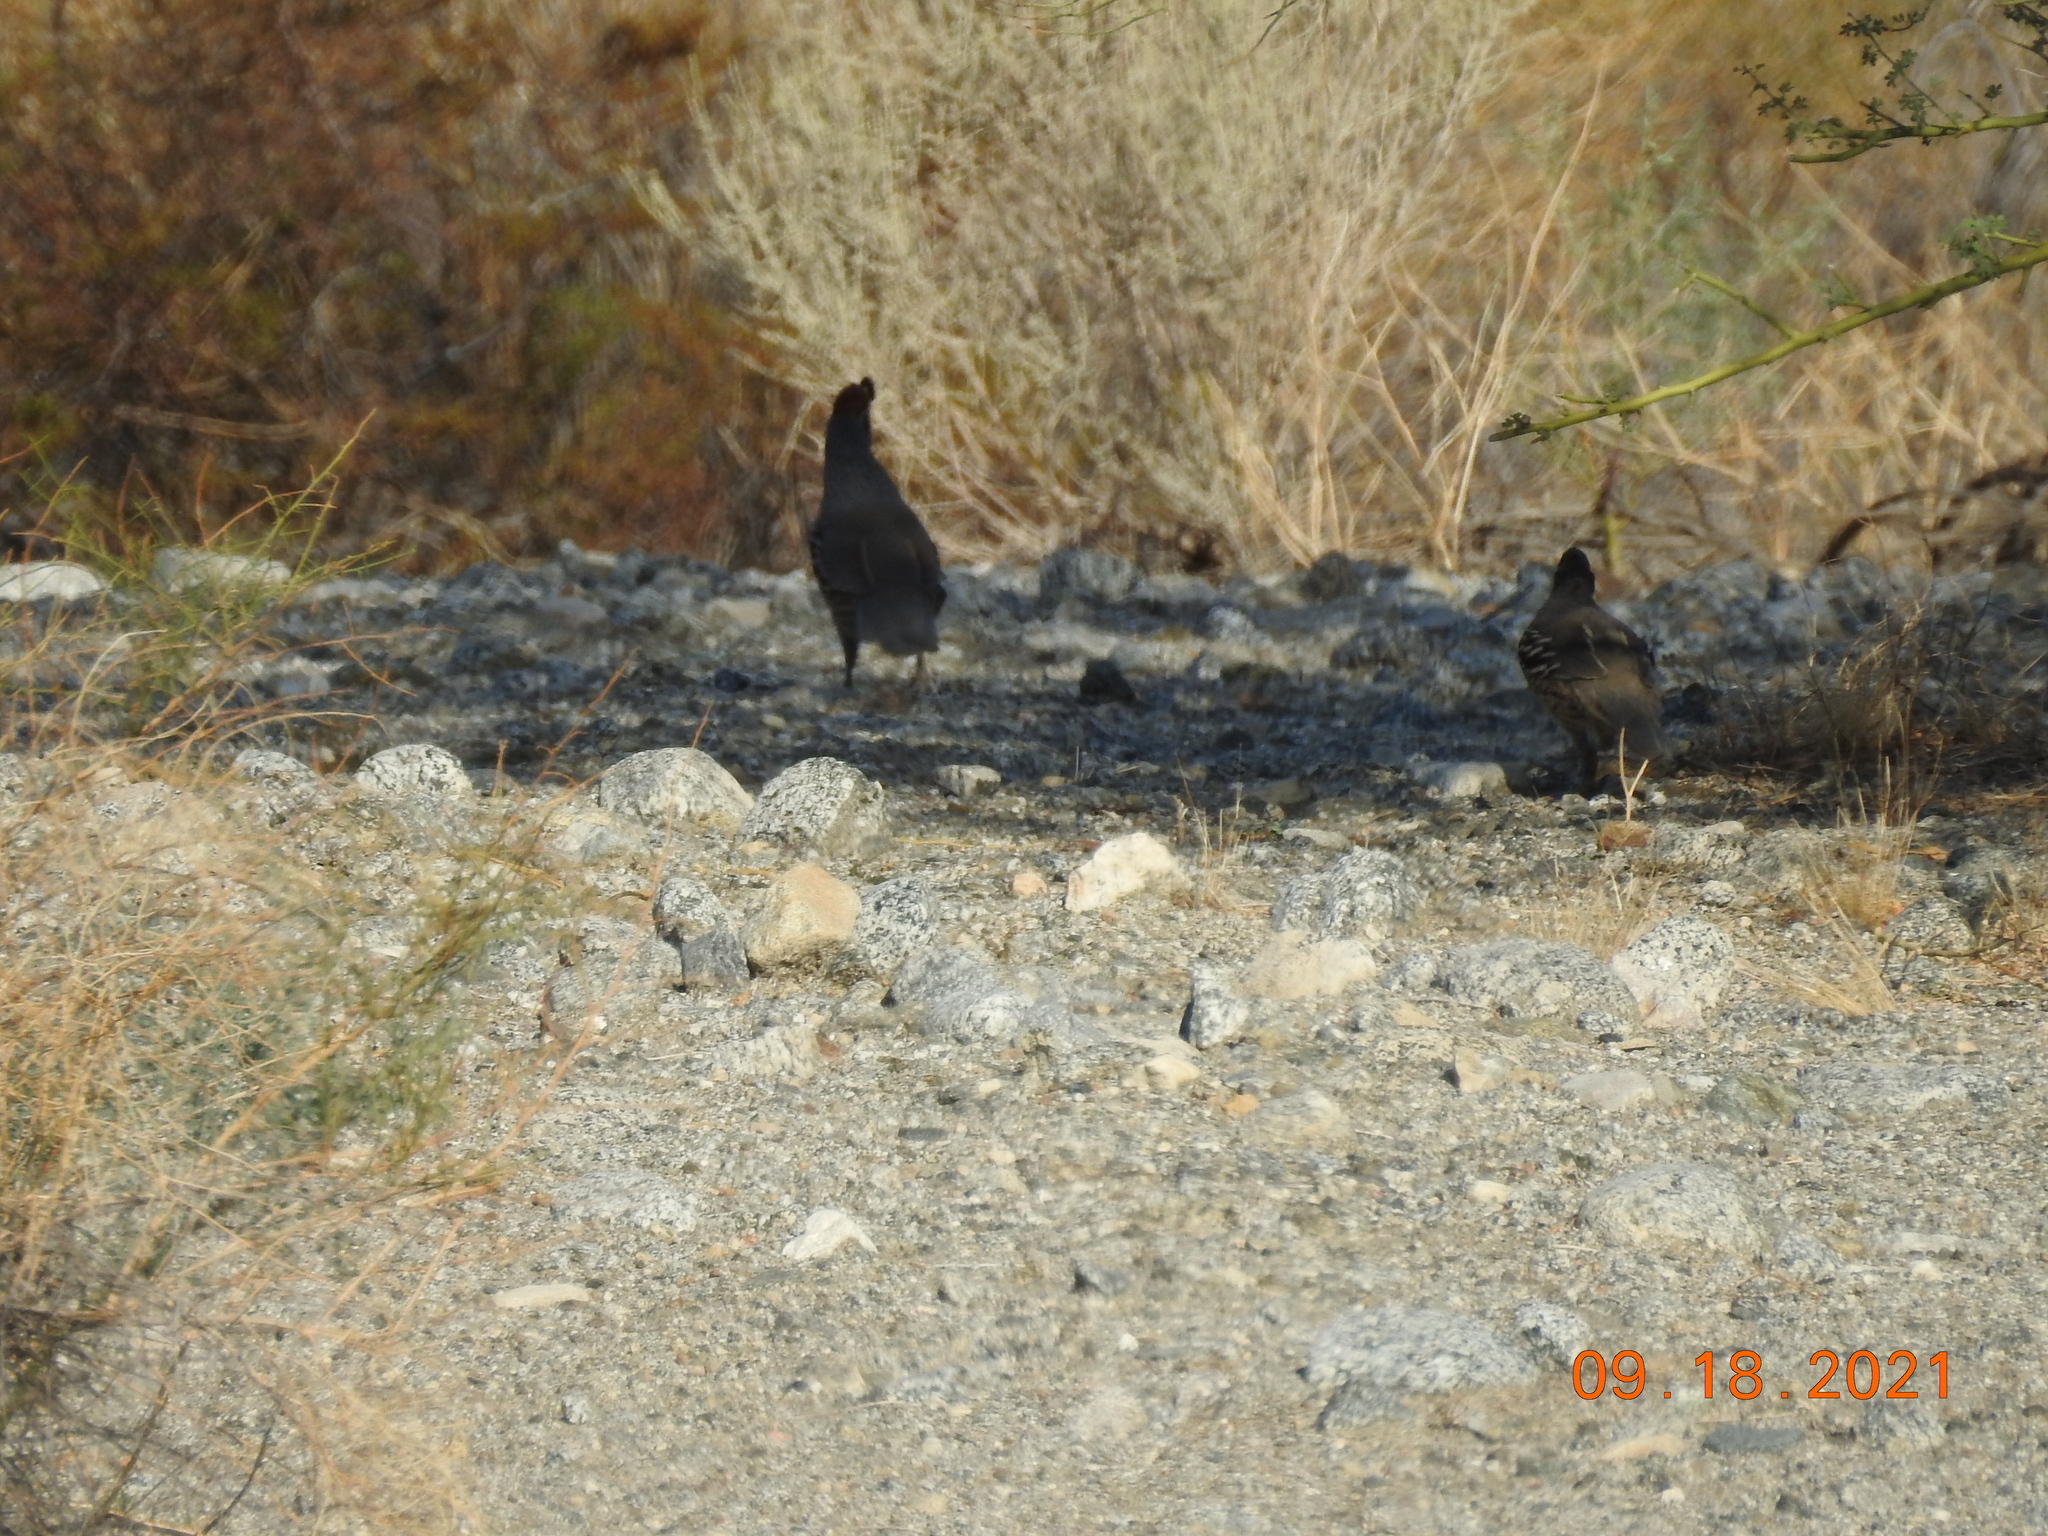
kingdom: Animalia
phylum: Chordata
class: Aves
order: Galliformes
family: Odontophoridae
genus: Callipepla
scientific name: Callipepla gambelii
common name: Gambel's quail
